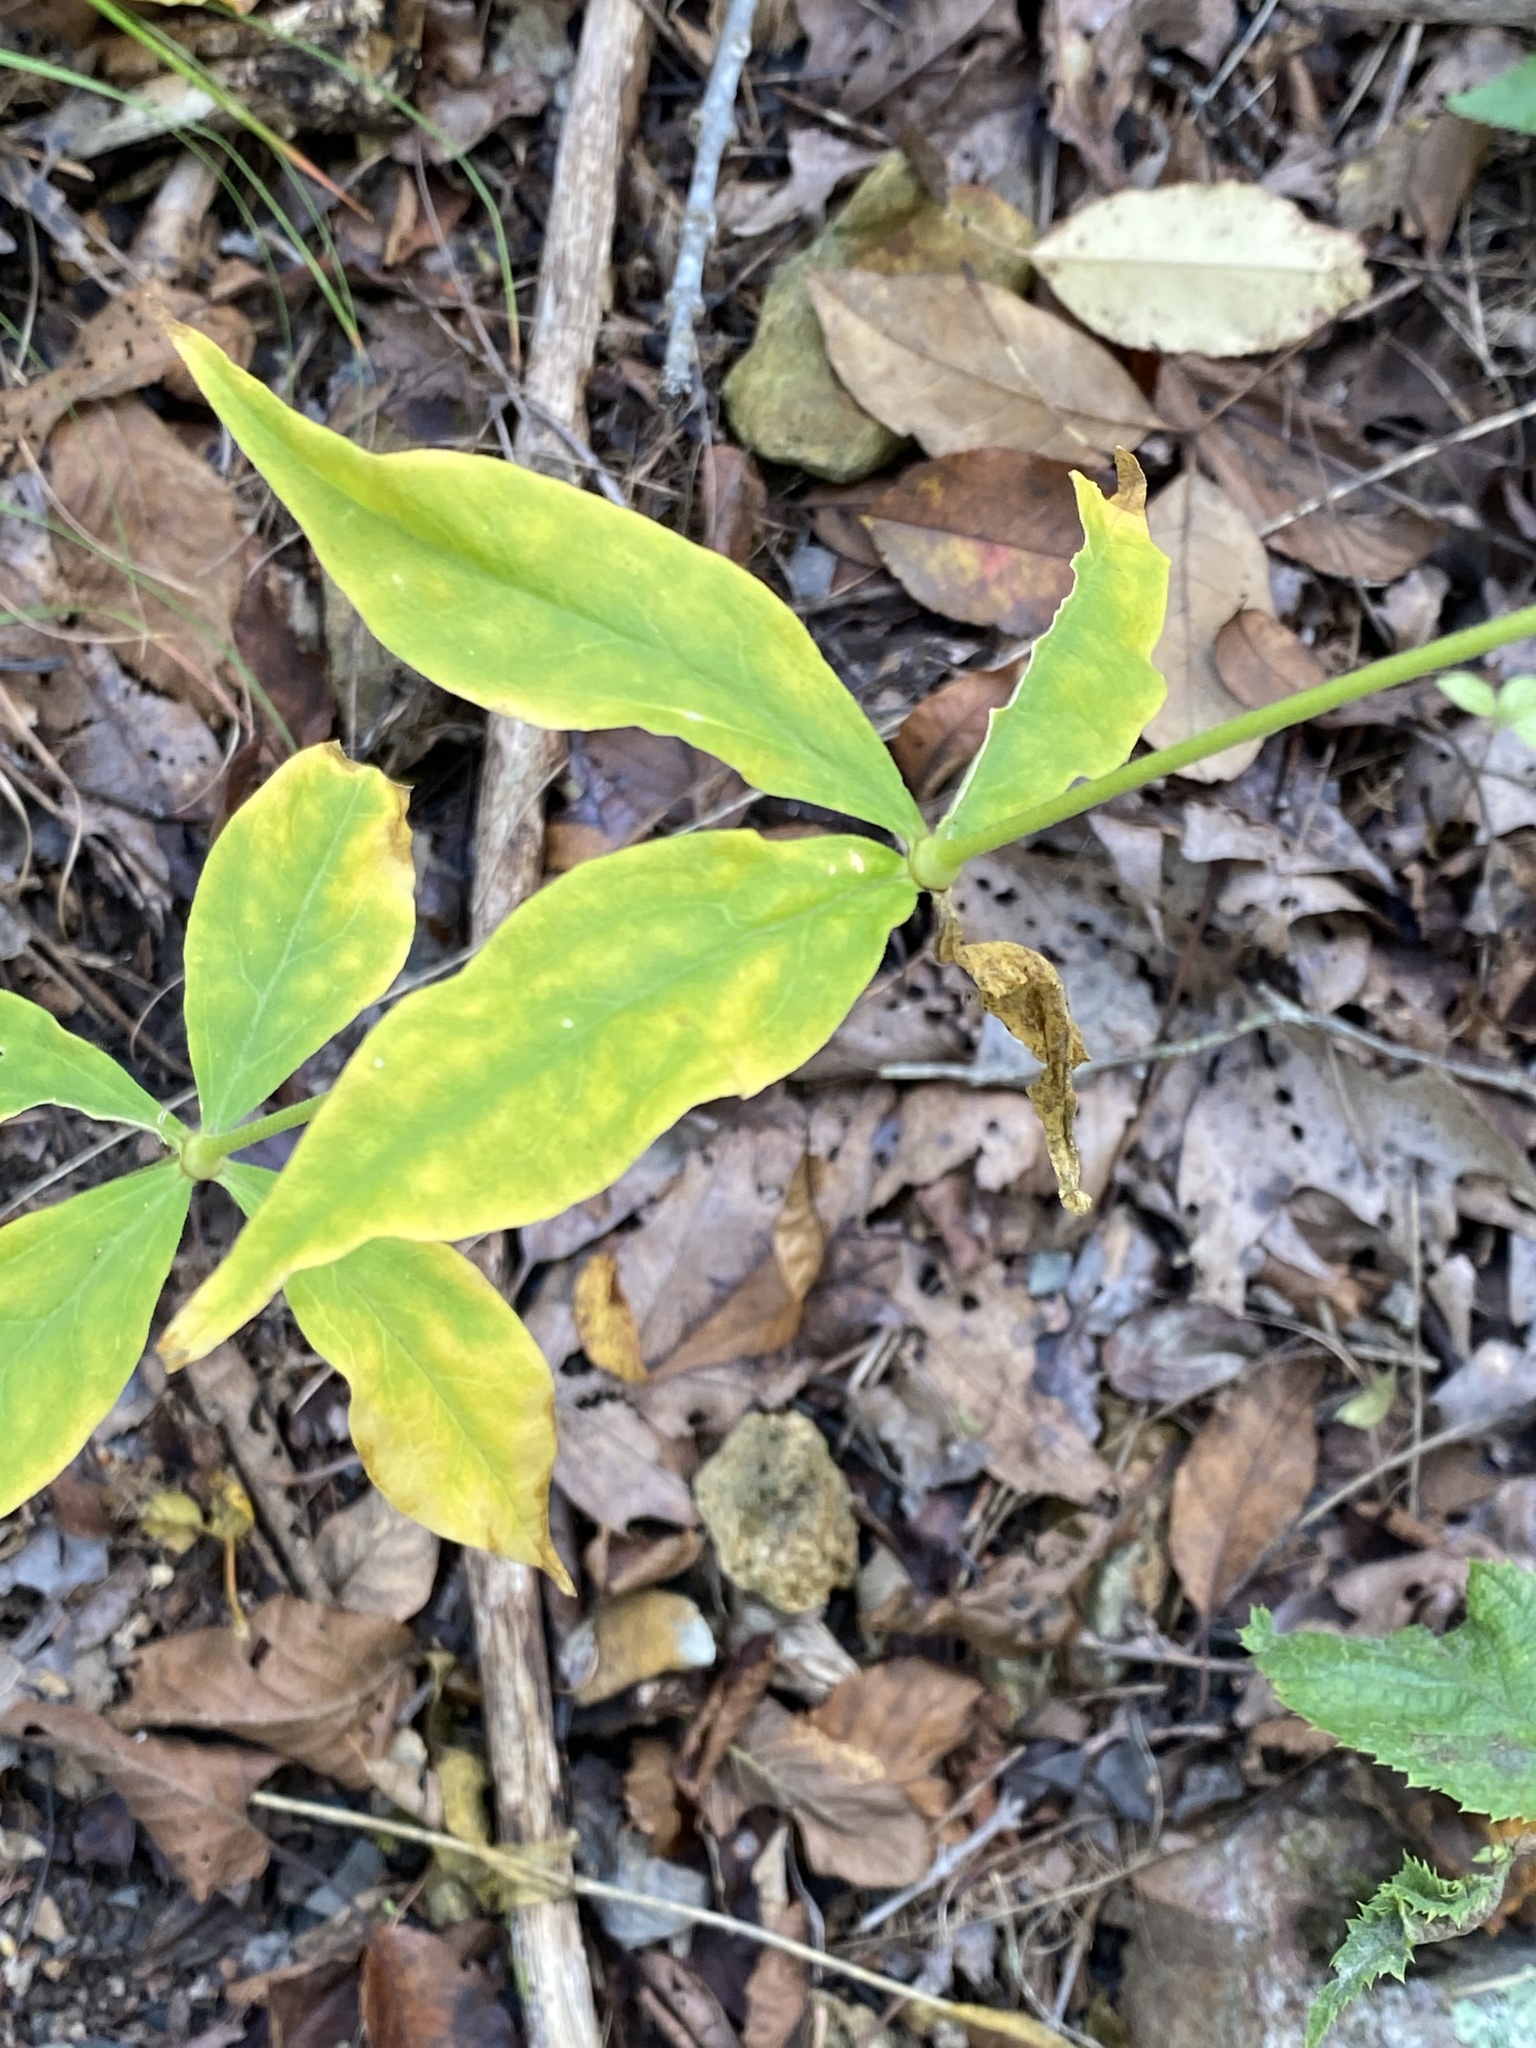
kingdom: Plantae
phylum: Tracheophyta
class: Magnoliopsida
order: Caryophyllales
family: Caryophyllaceae
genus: Silene
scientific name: Silene stellata
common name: Starry campion
